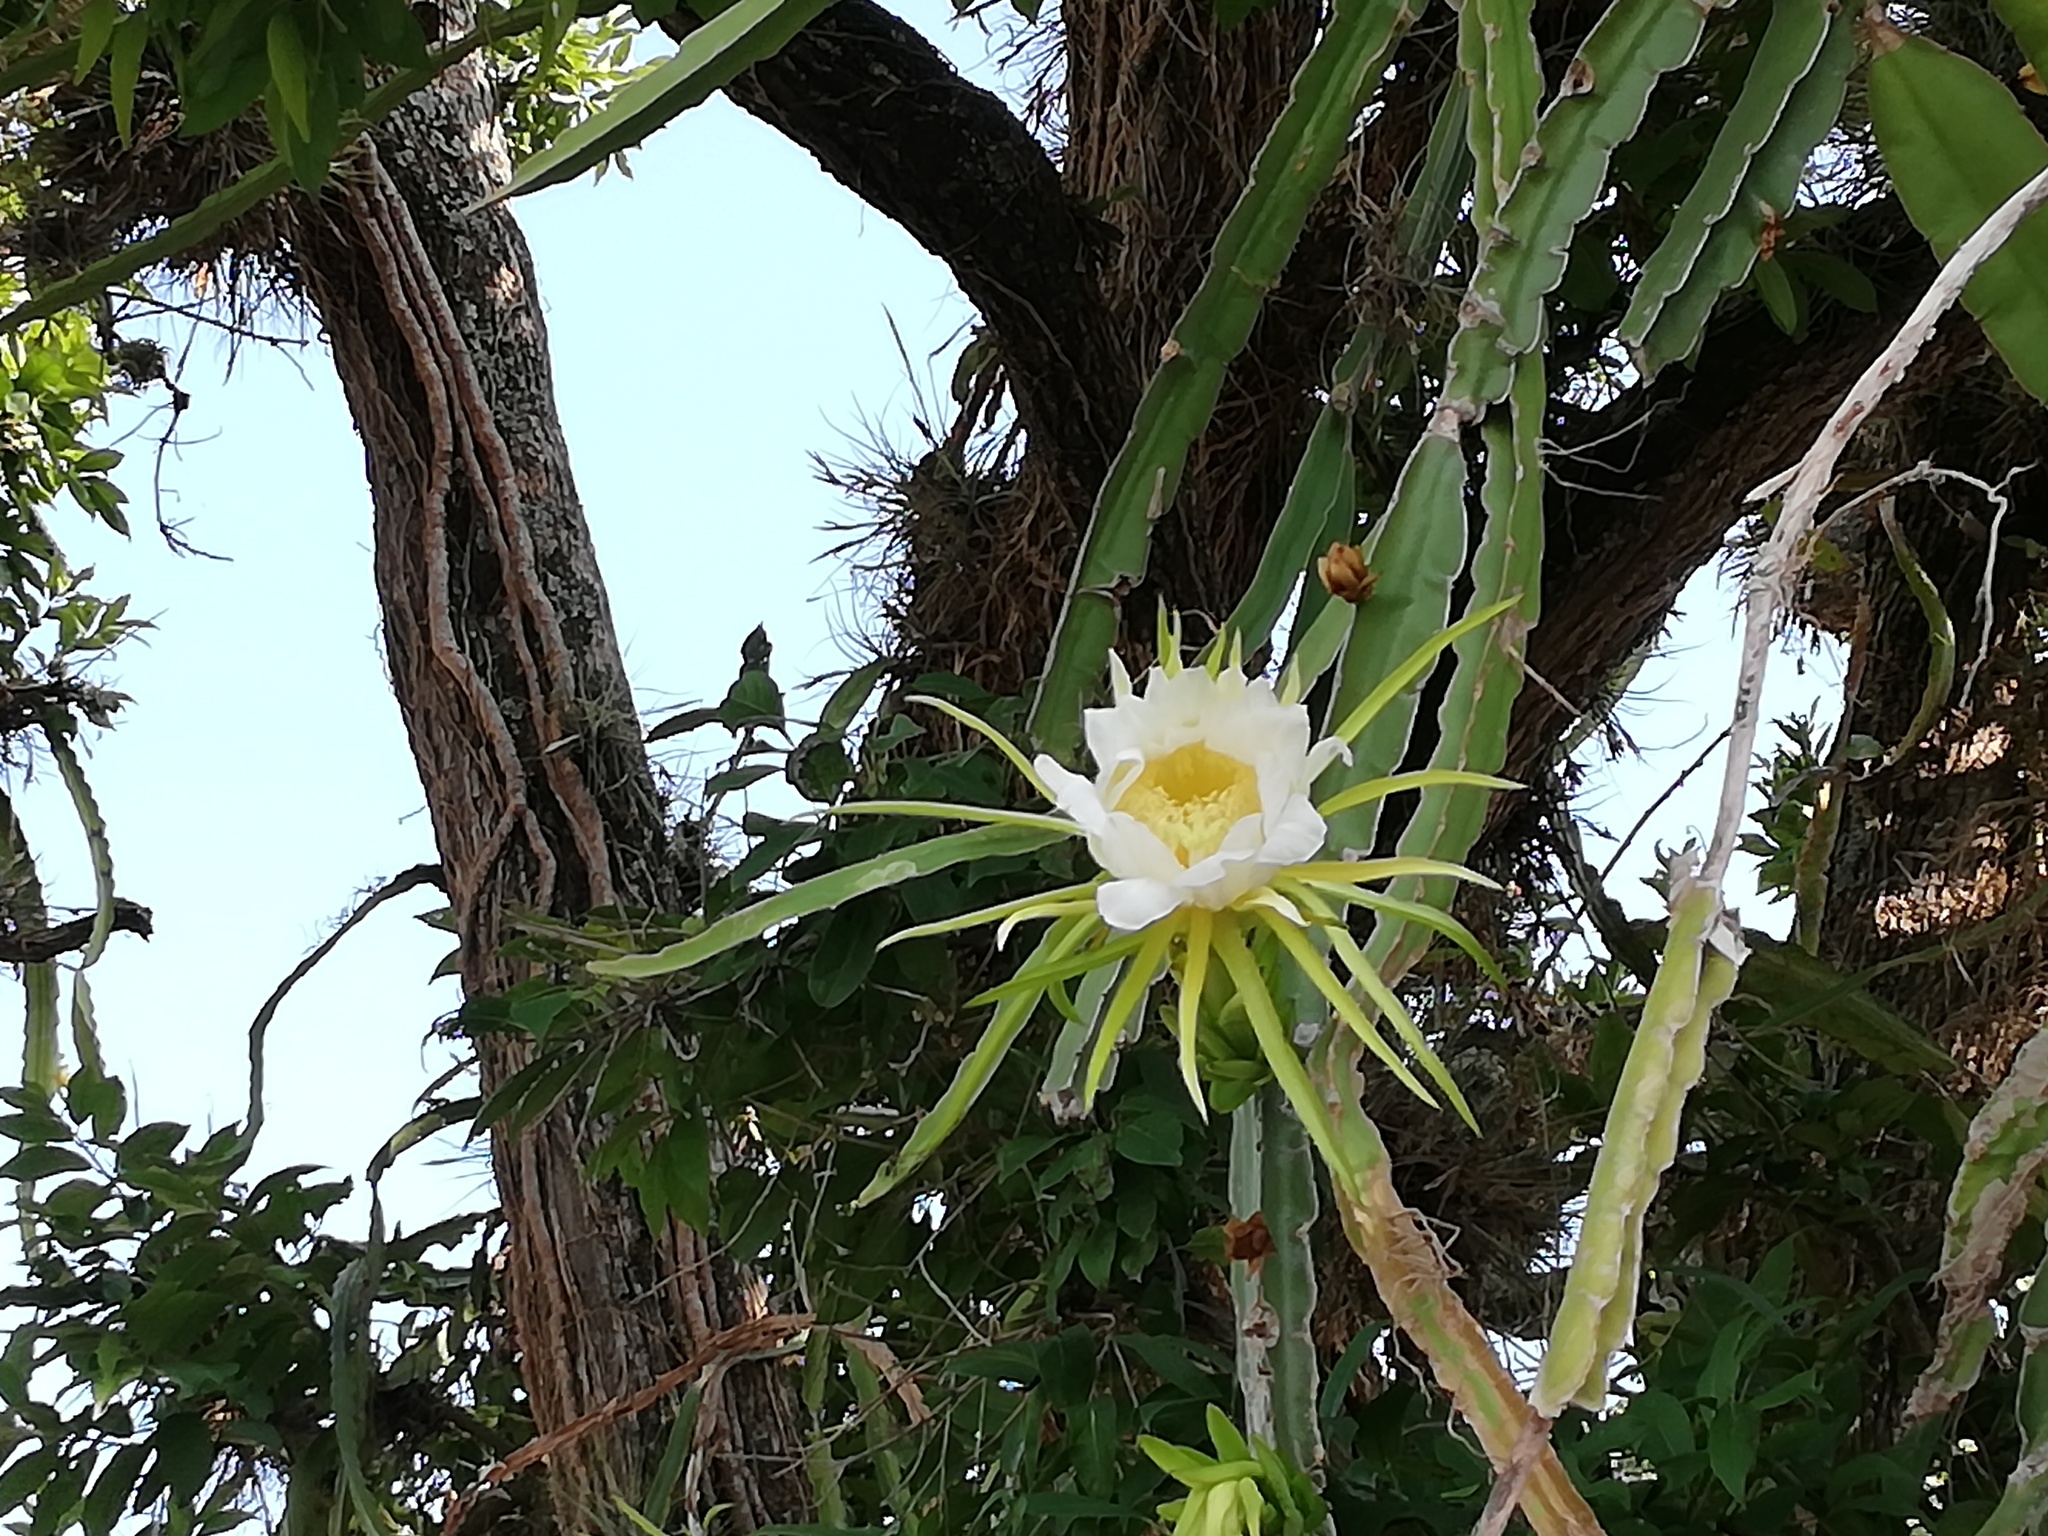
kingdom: Plantae
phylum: Tracheophyta
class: Magnoliopsida
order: Caryophyllales
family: Cactaceae
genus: Selenicereus
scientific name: Selenicereus undatus
